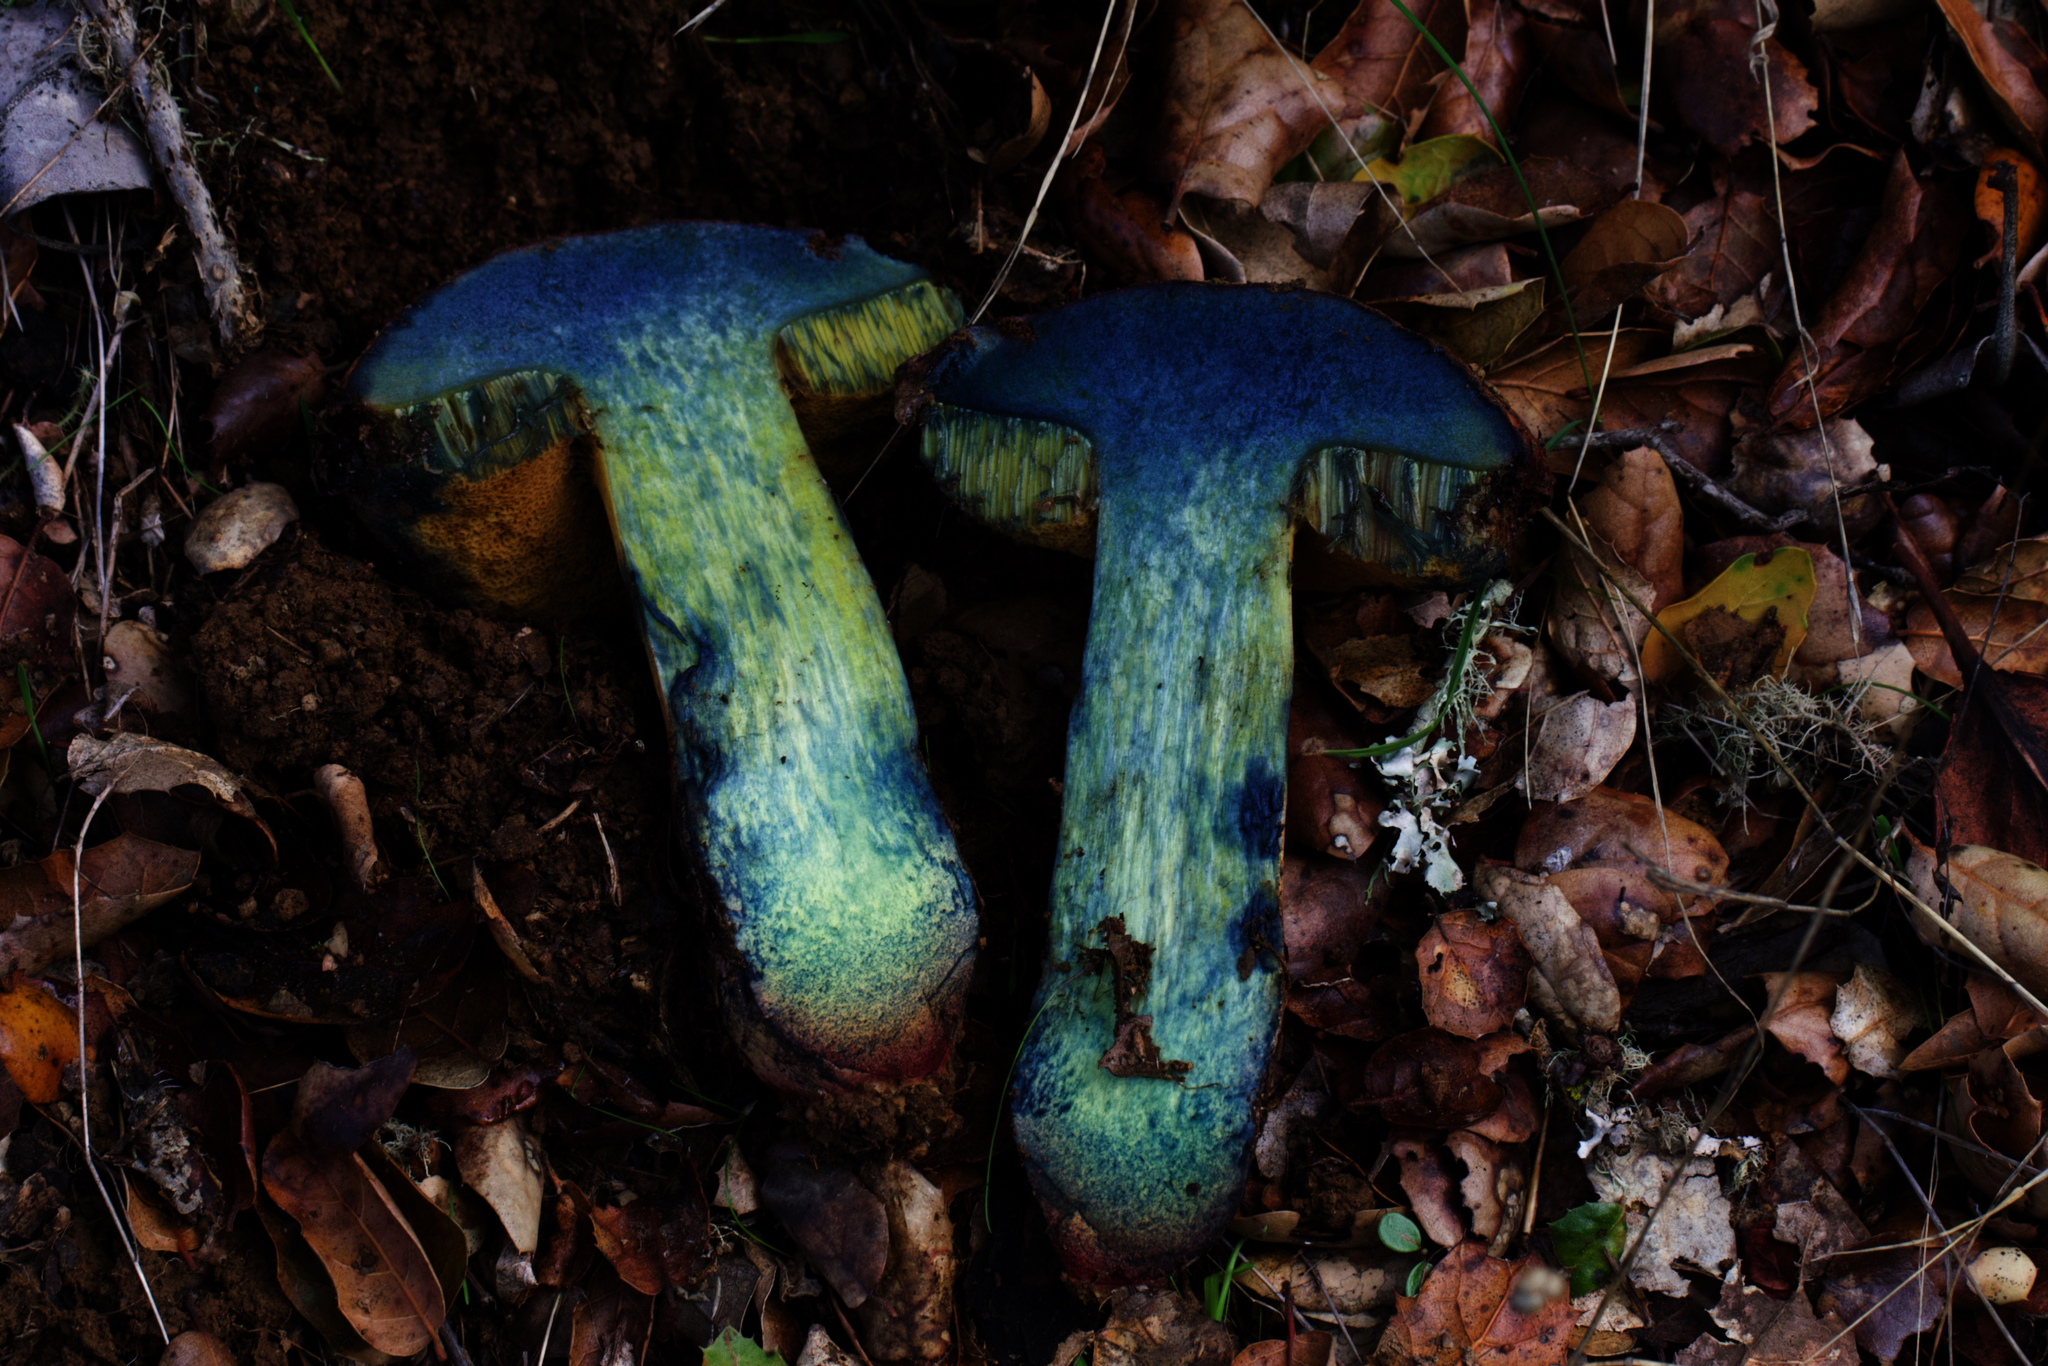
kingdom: Fungi
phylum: Basidiomycota
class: Agaricomycetes
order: Boletales
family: Boletaceae
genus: Suillellus
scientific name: Suillellus amygdalinus
